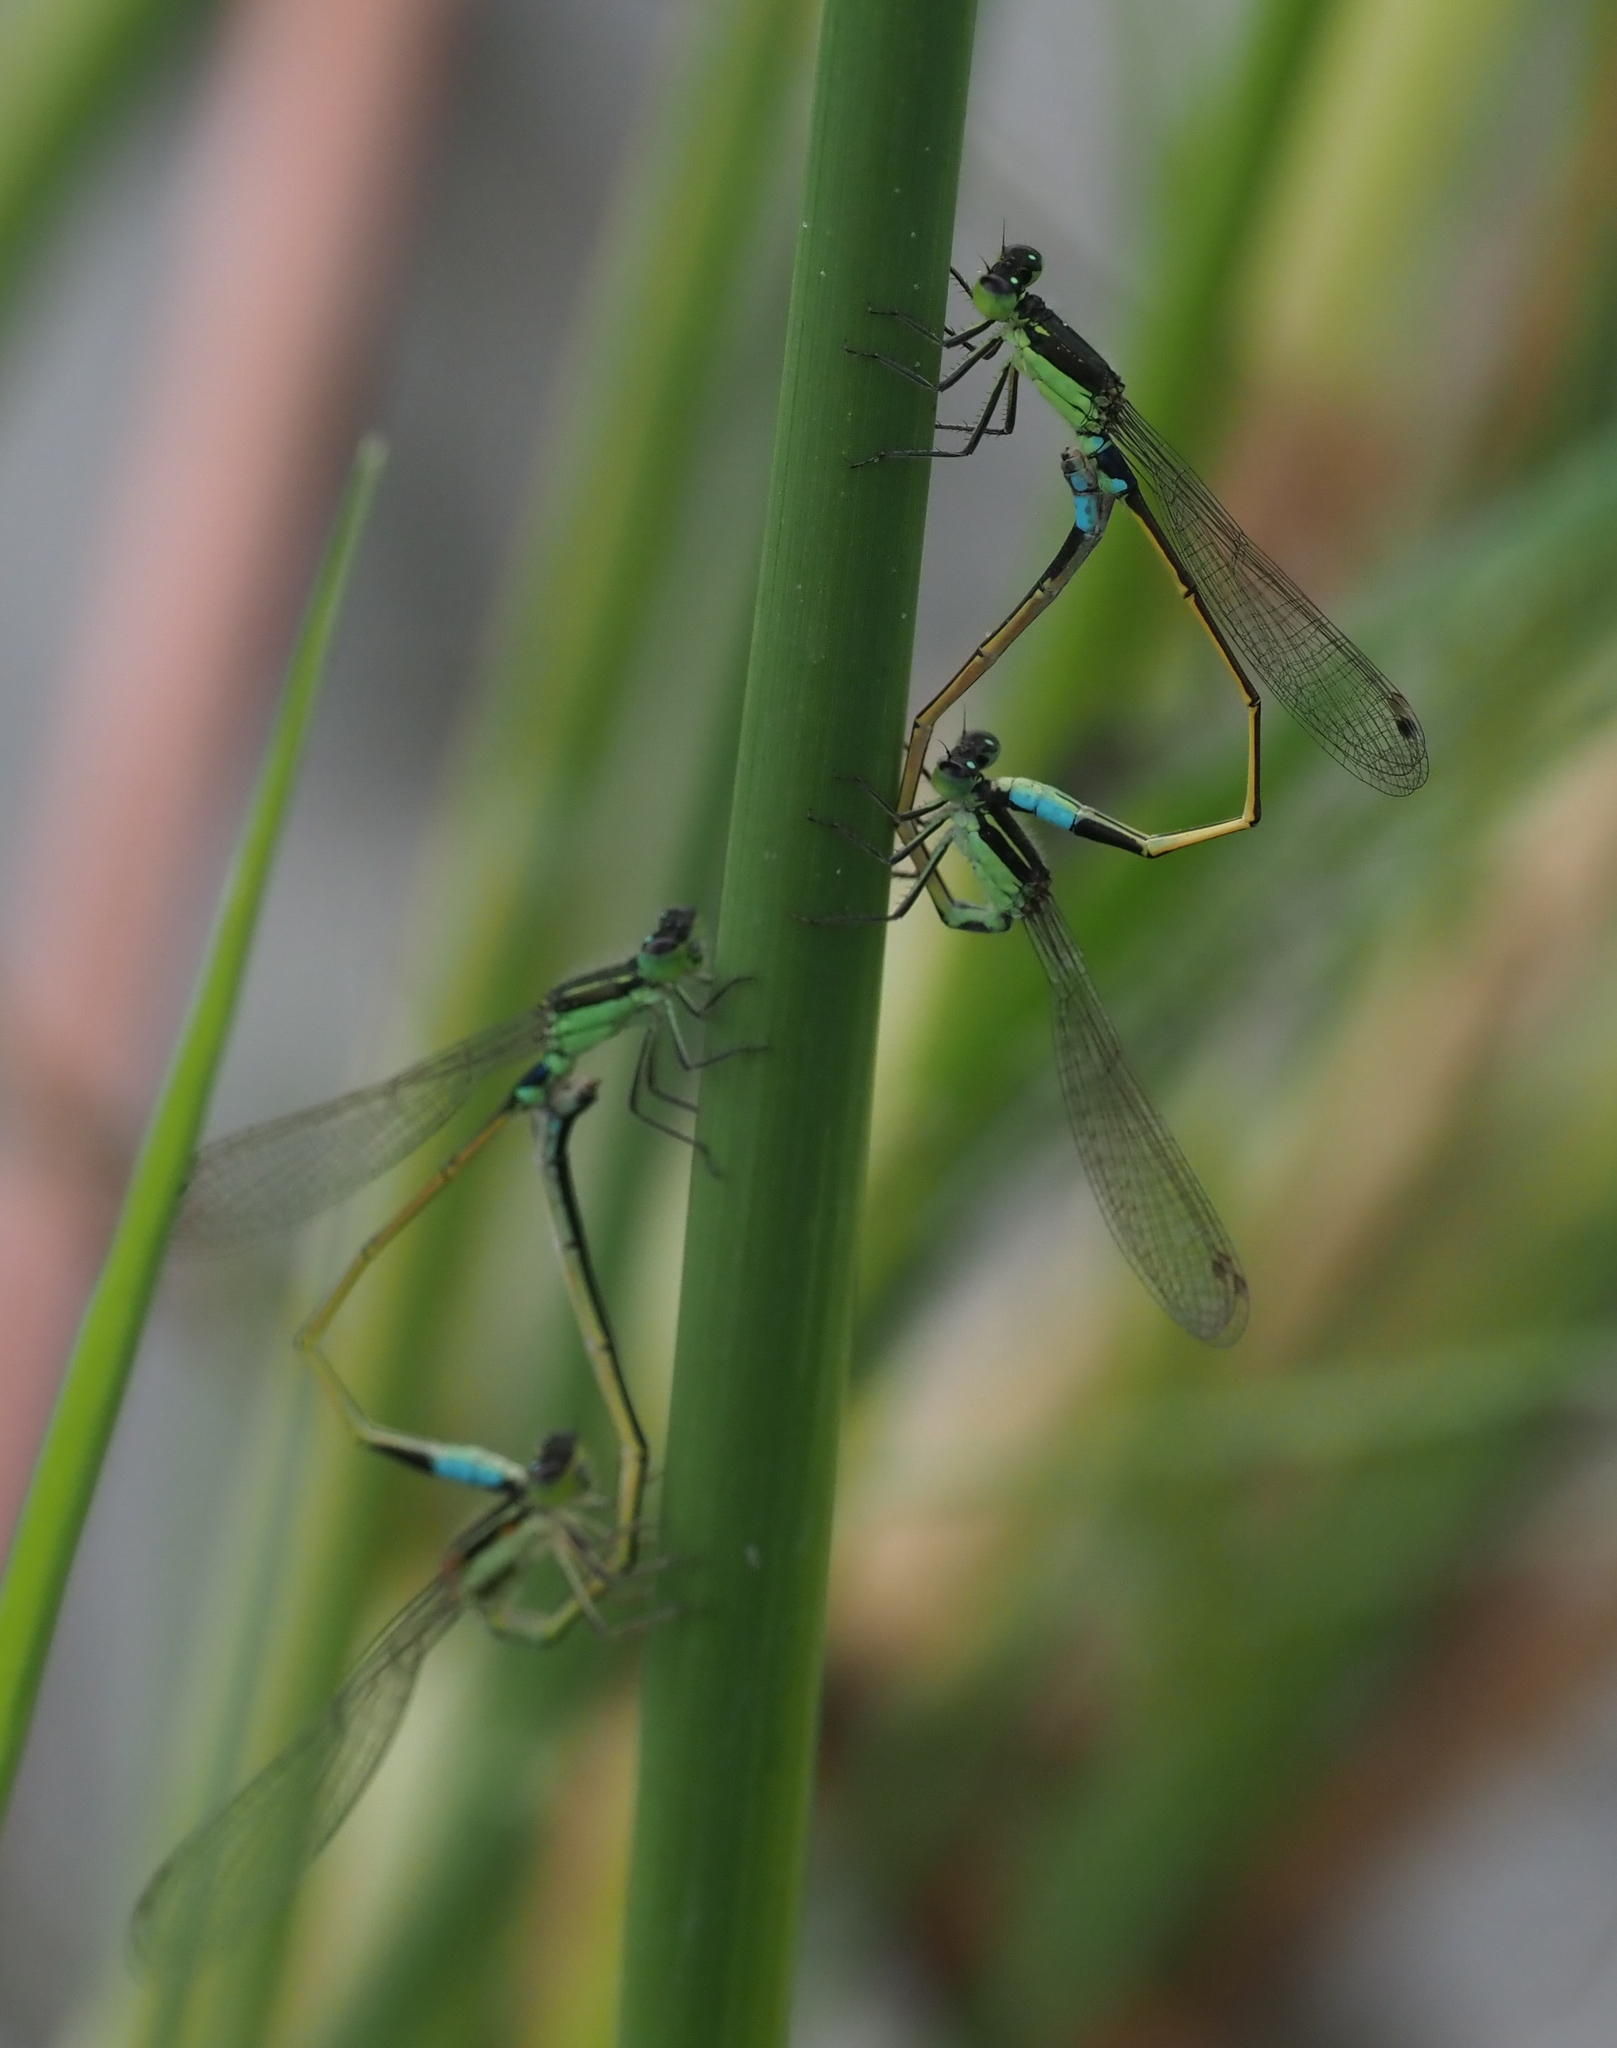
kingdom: Animalia
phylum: Arthropoda
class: Insecta
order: Odonata
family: Coenagrionidae
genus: Ischnura
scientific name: Ischnura senegalensis
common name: Tropical bluetail
